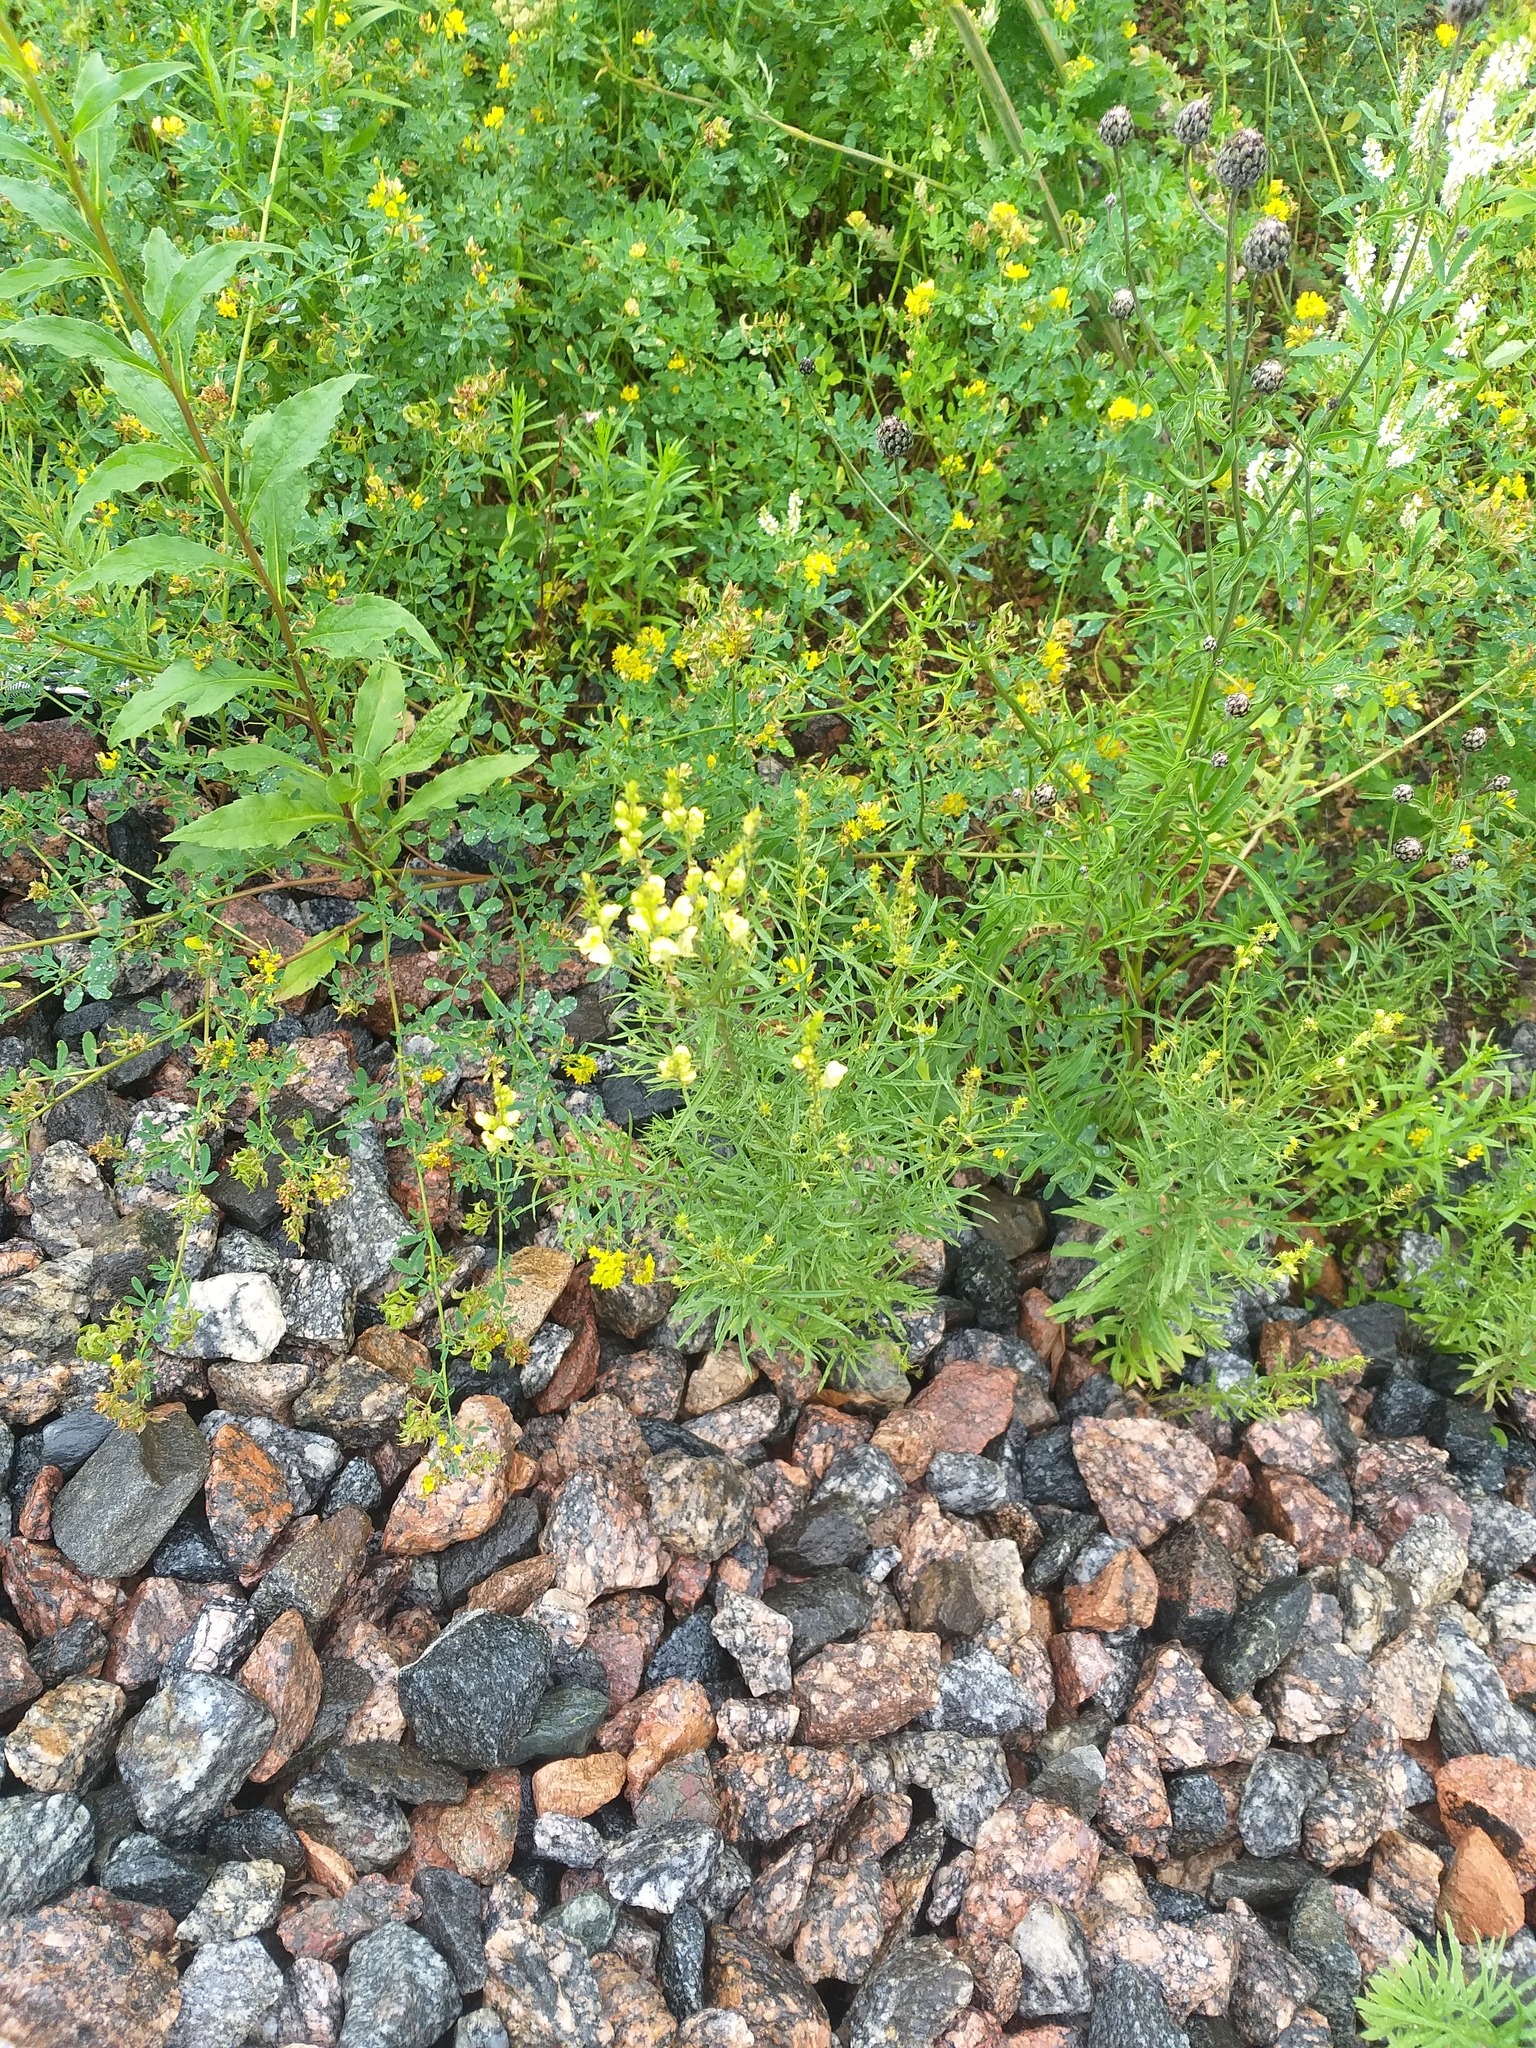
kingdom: Plantae
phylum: Tracheophyta
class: Magnoliopsida
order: Lamiales
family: Plantaginaceae
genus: Linaria
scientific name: Linaria vulgaris
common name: Butter and eggs
